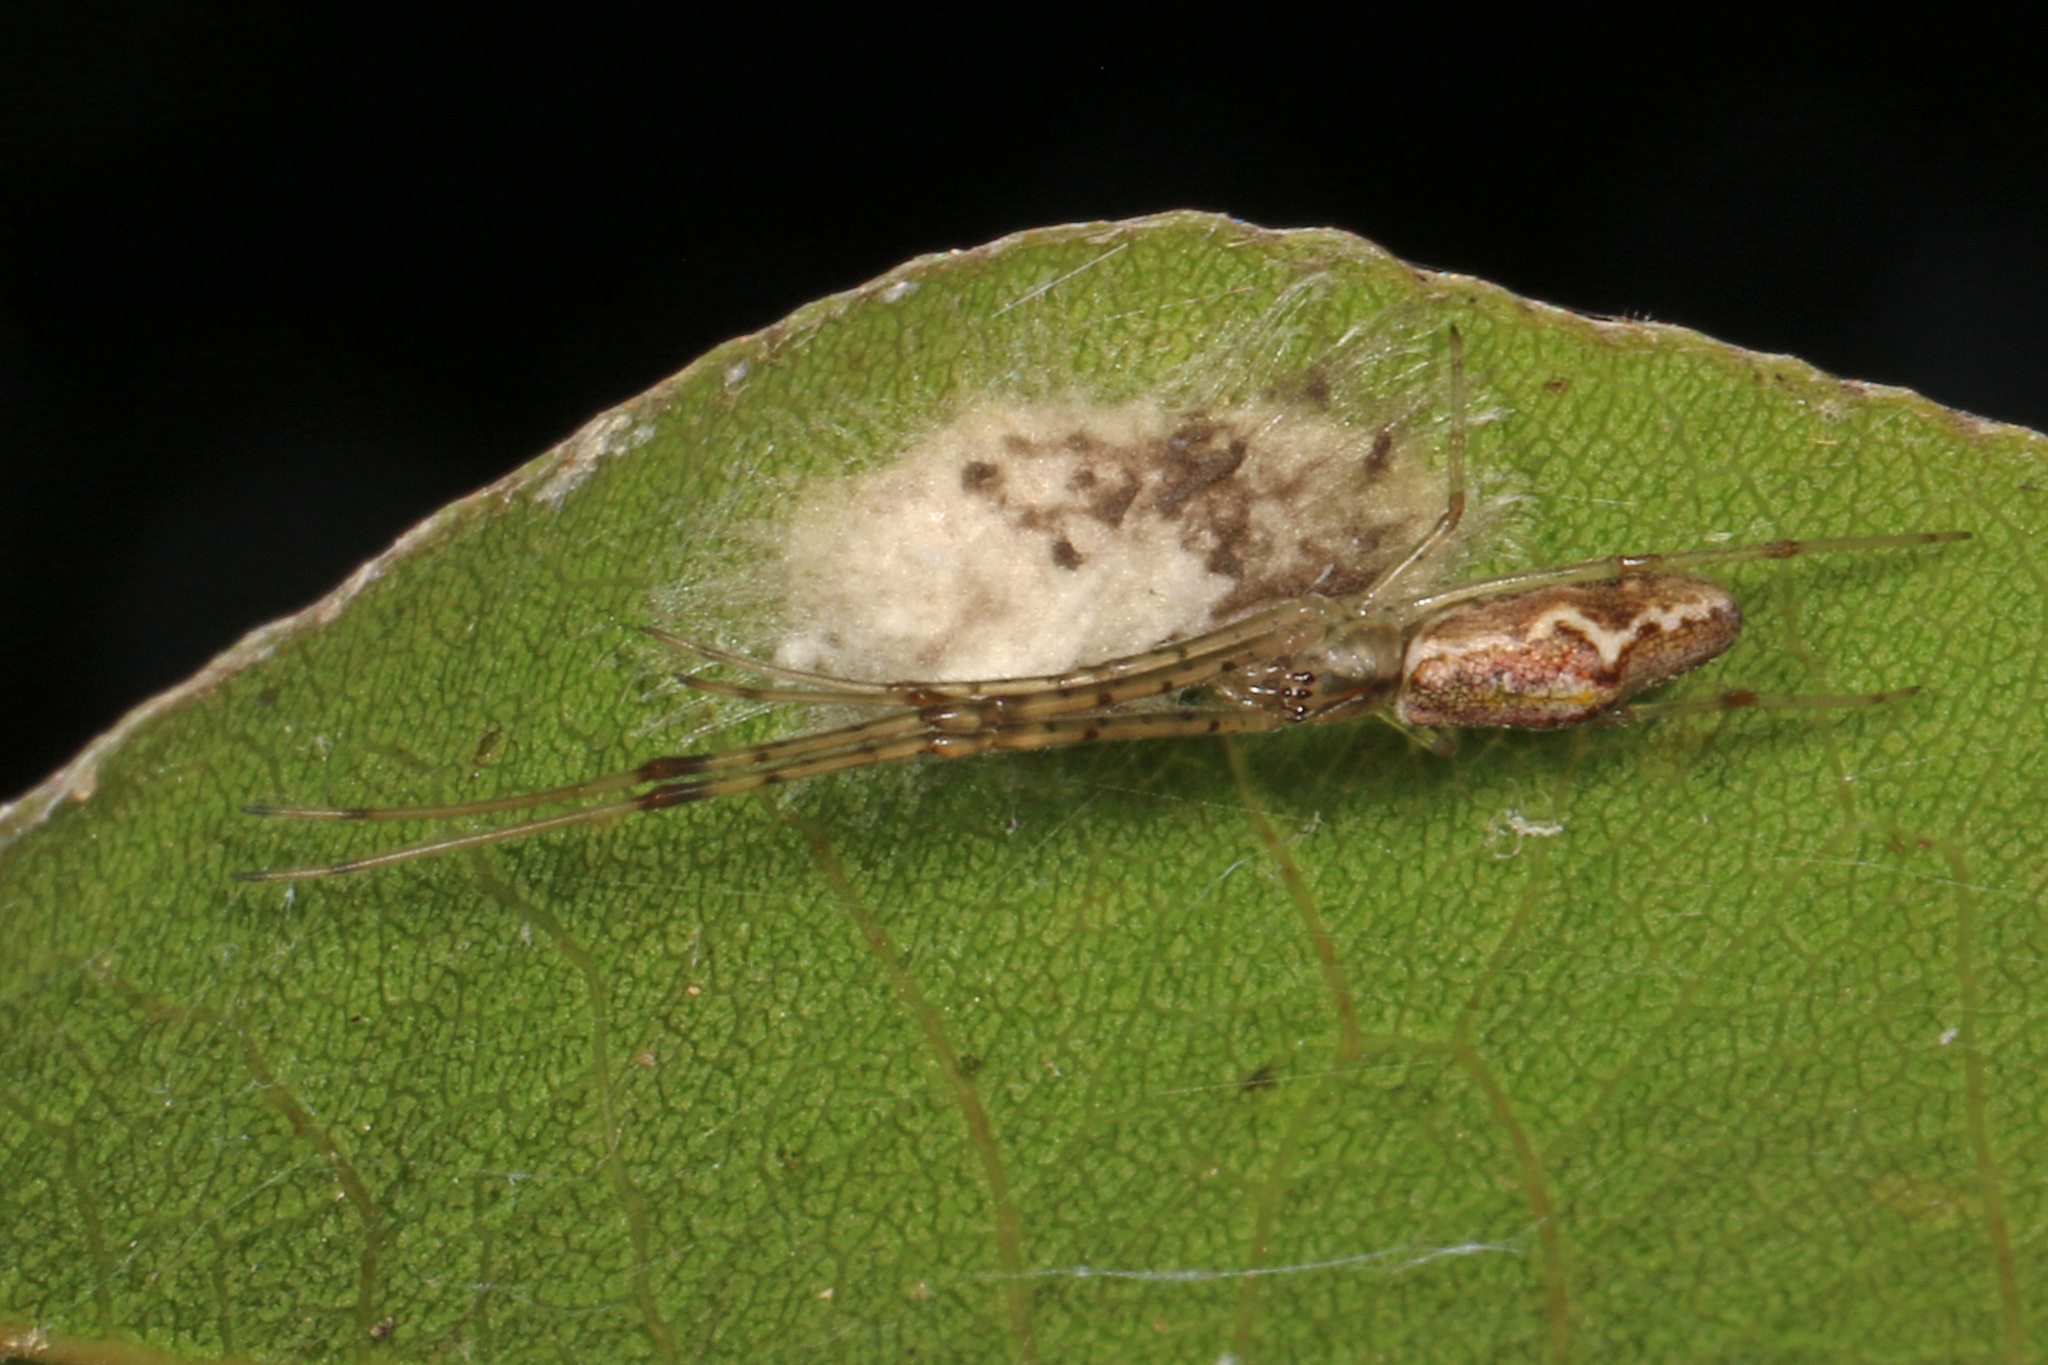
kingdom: Animalia
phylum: Arthropoda
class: Arachnida
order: Araneae
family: Tetragnathidae
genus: Tetragnatha
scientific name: Tetragnatha
